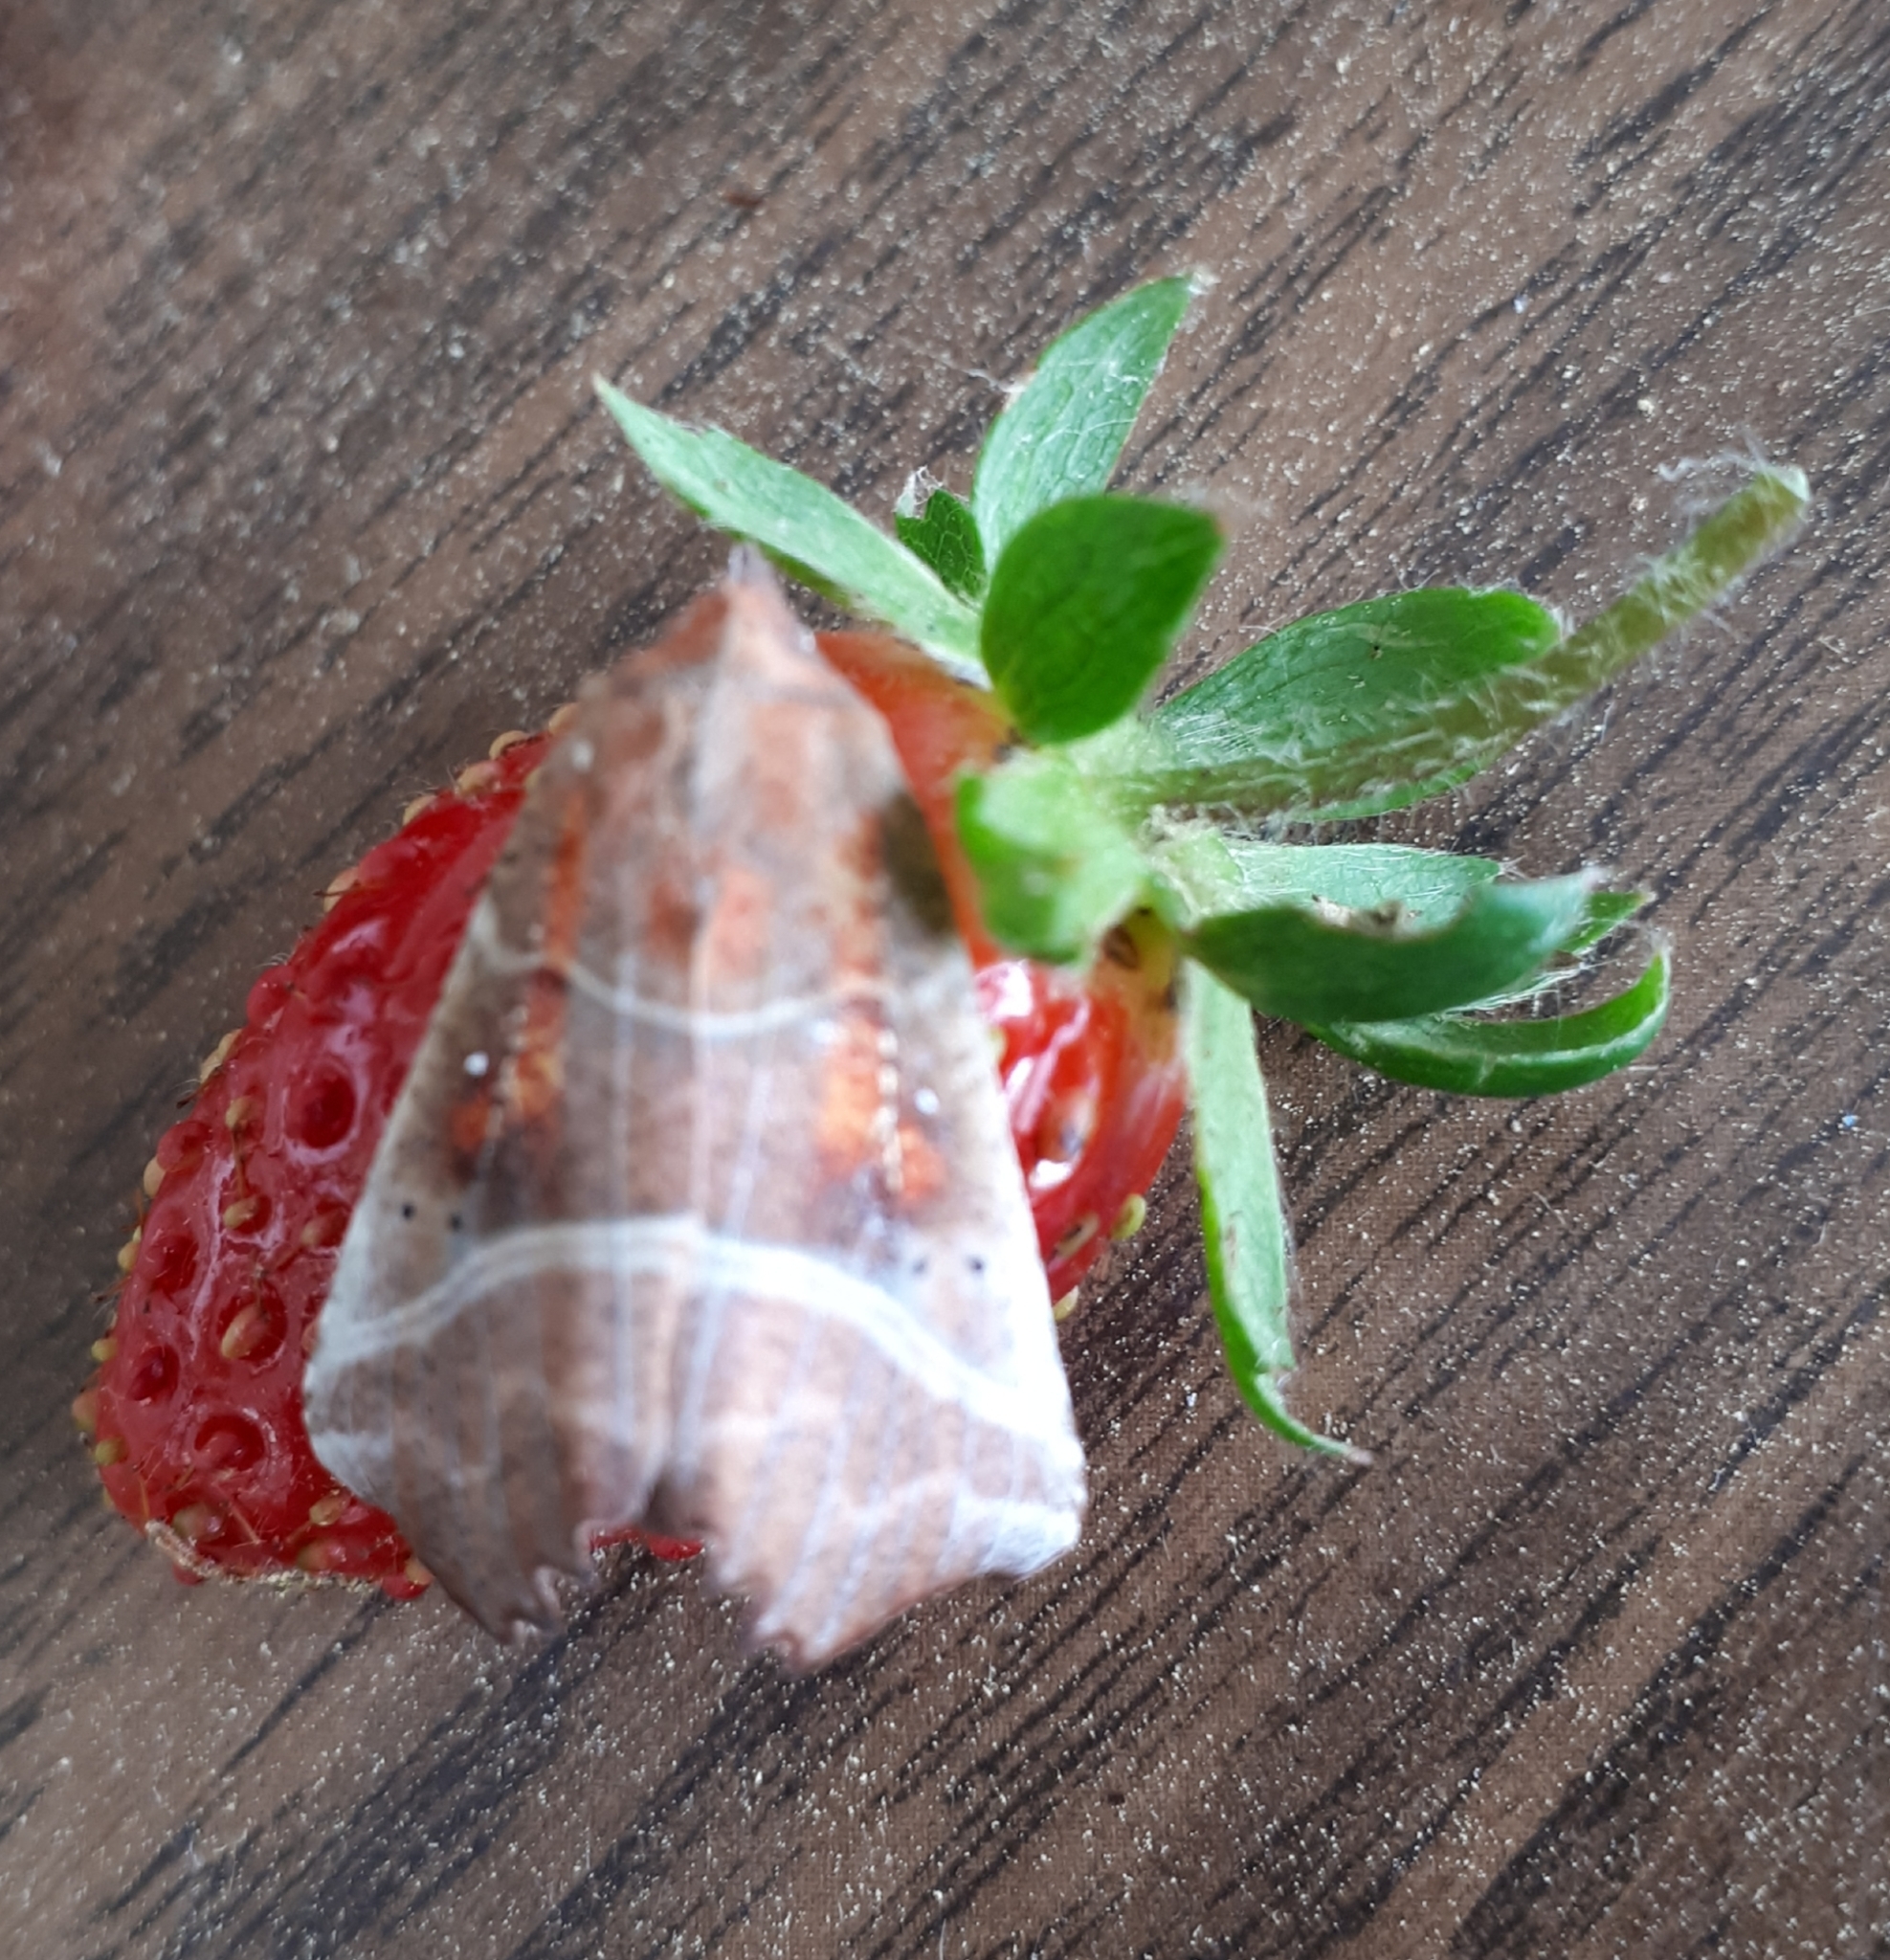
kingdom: Animalia
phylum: Arthropoda
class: Insecta
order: Lepidoptera
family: Erebidae
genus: Scoliopteryx
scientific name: Scoliopteryx libatrix
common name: Herald
